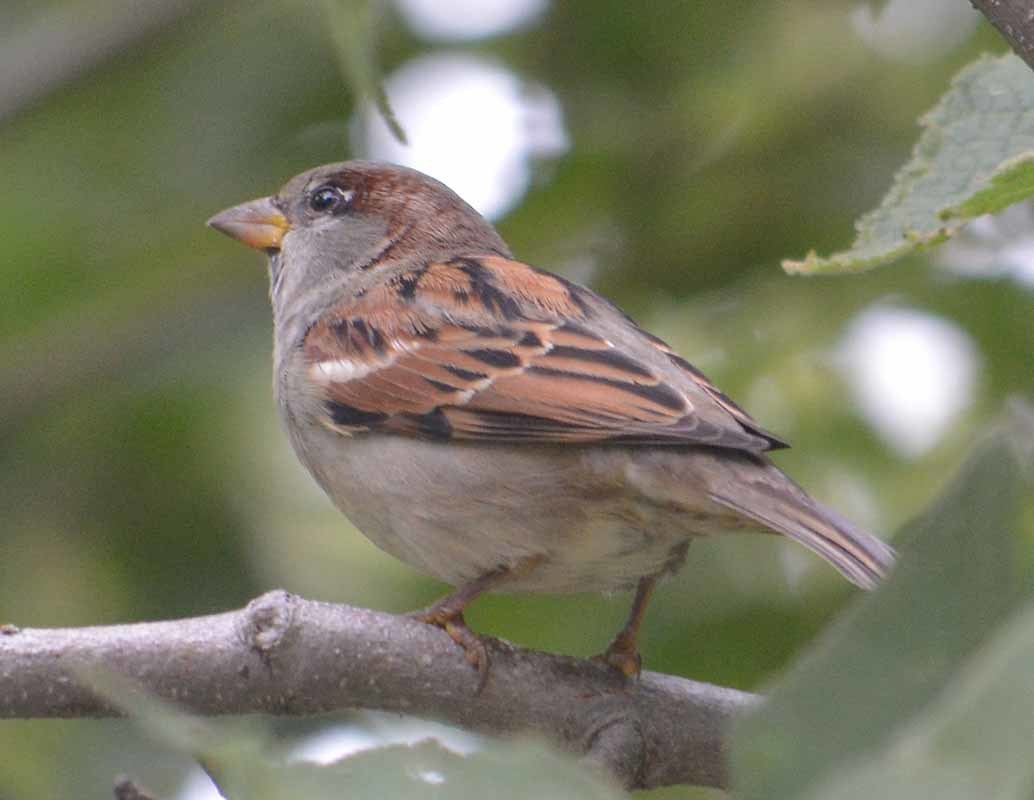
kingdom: Animalia
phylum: Chordata
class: Aves
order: Passeriformes
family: Passeridae
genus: Passer
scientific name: Passer domesticus
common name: House sparrow
